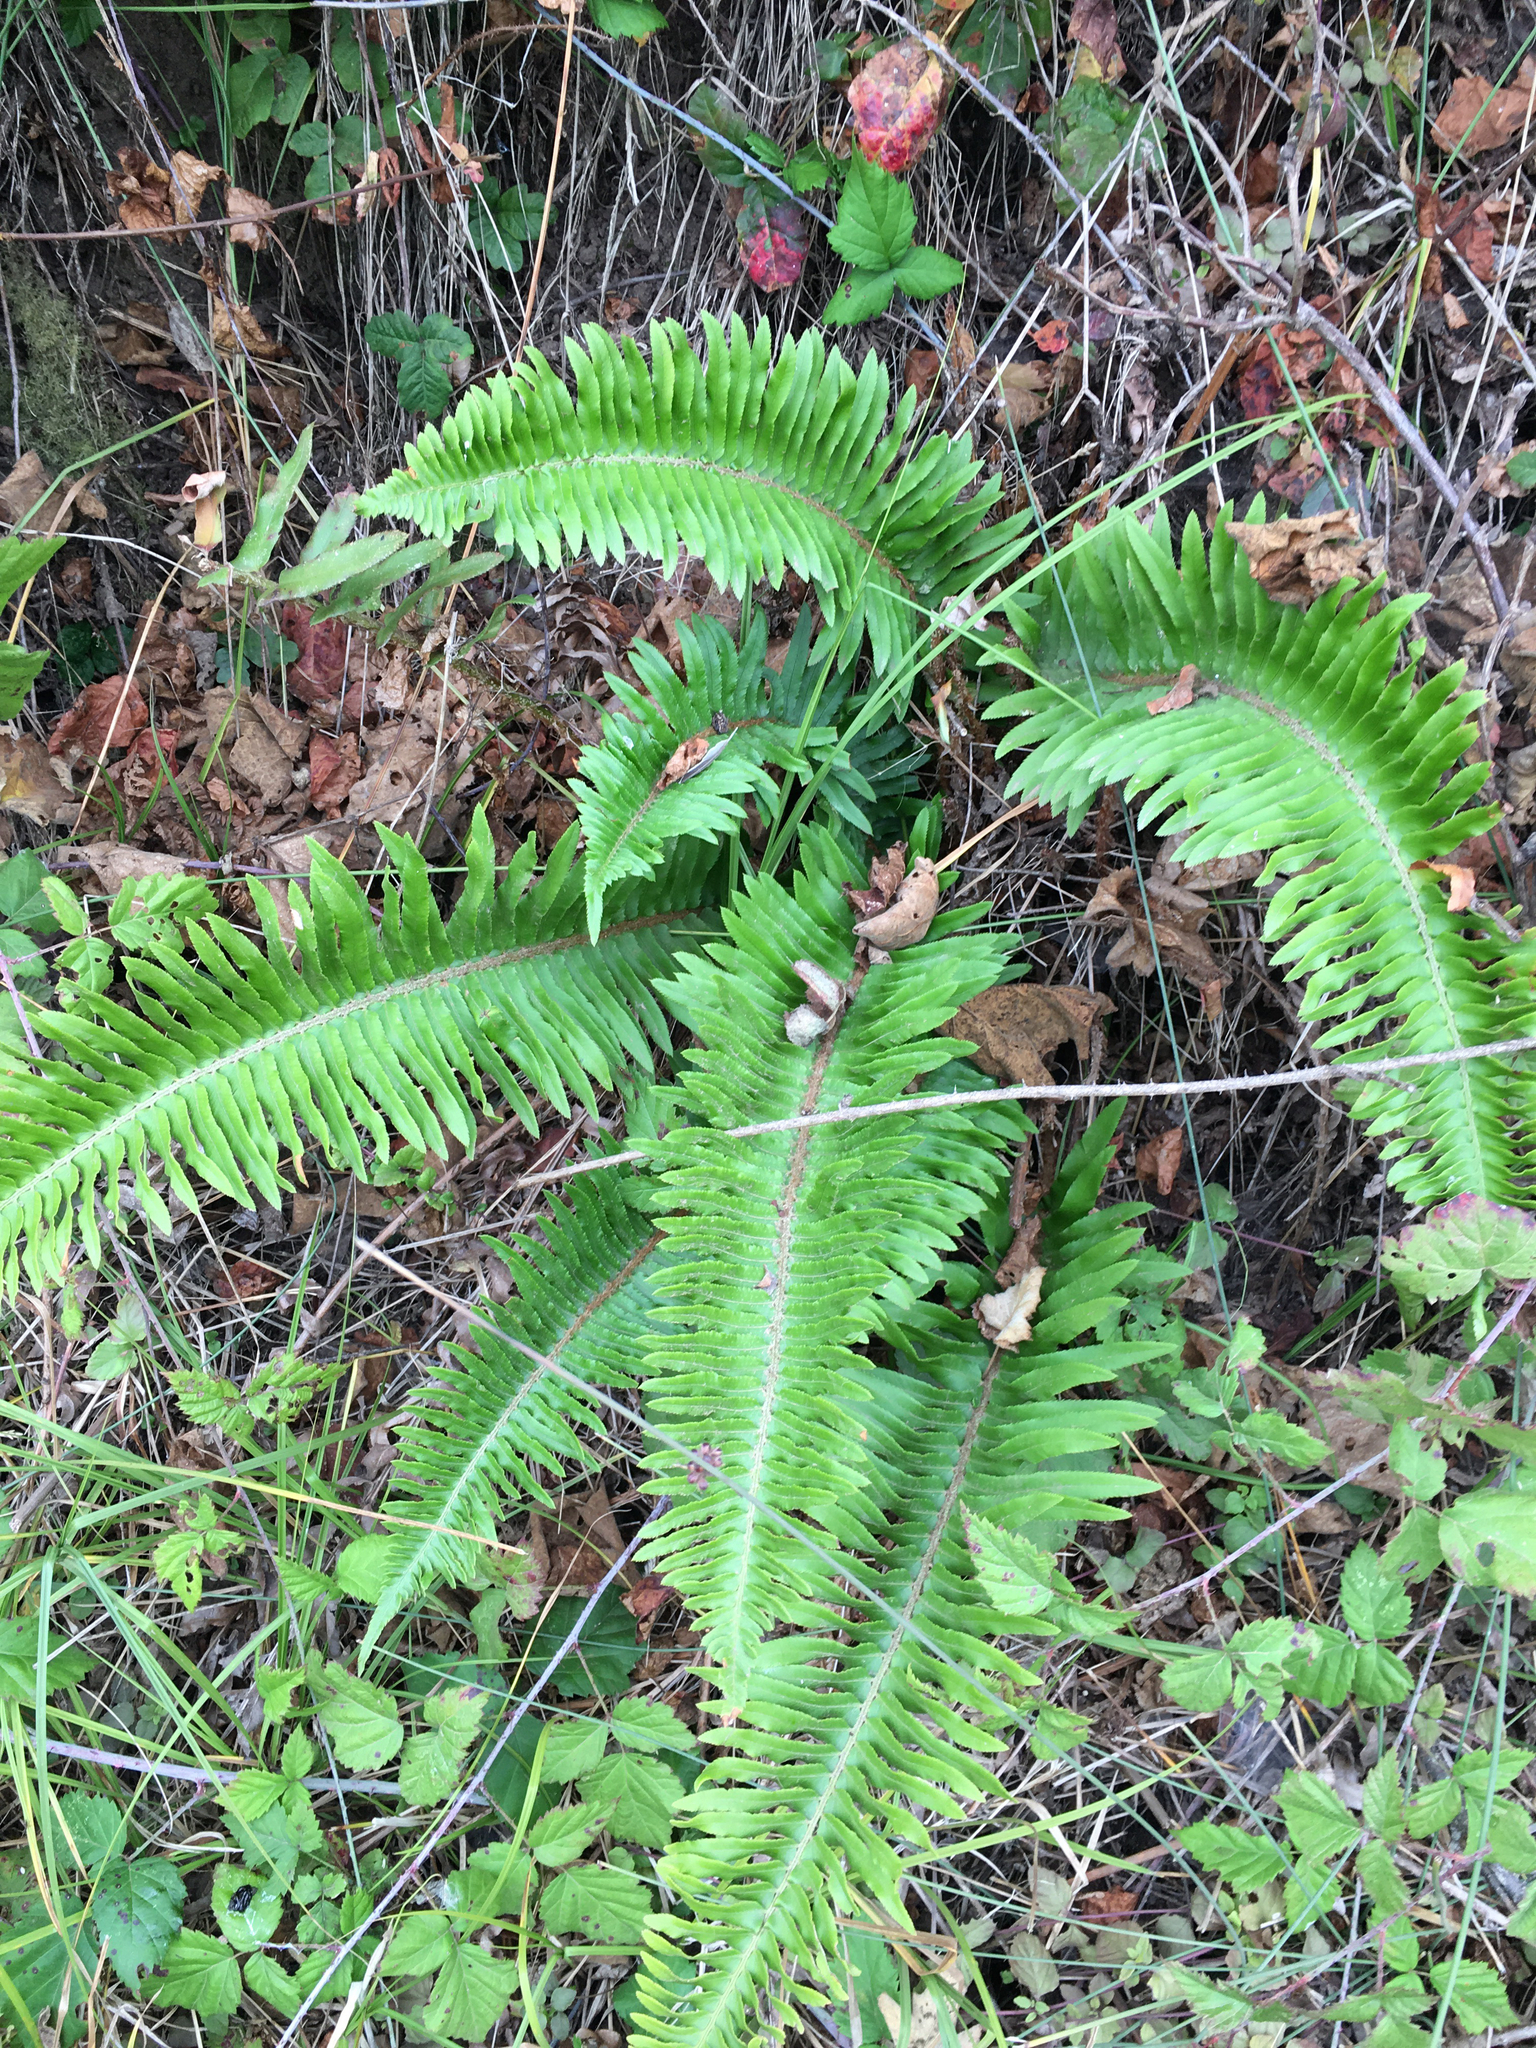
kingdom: Plantae
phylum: Tracheophyta
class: Polypodiopsida
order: Polypodiales
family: Dryopteridaceae
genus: Polystichum
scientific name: Polystichum munitum
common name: Western sword-fern
